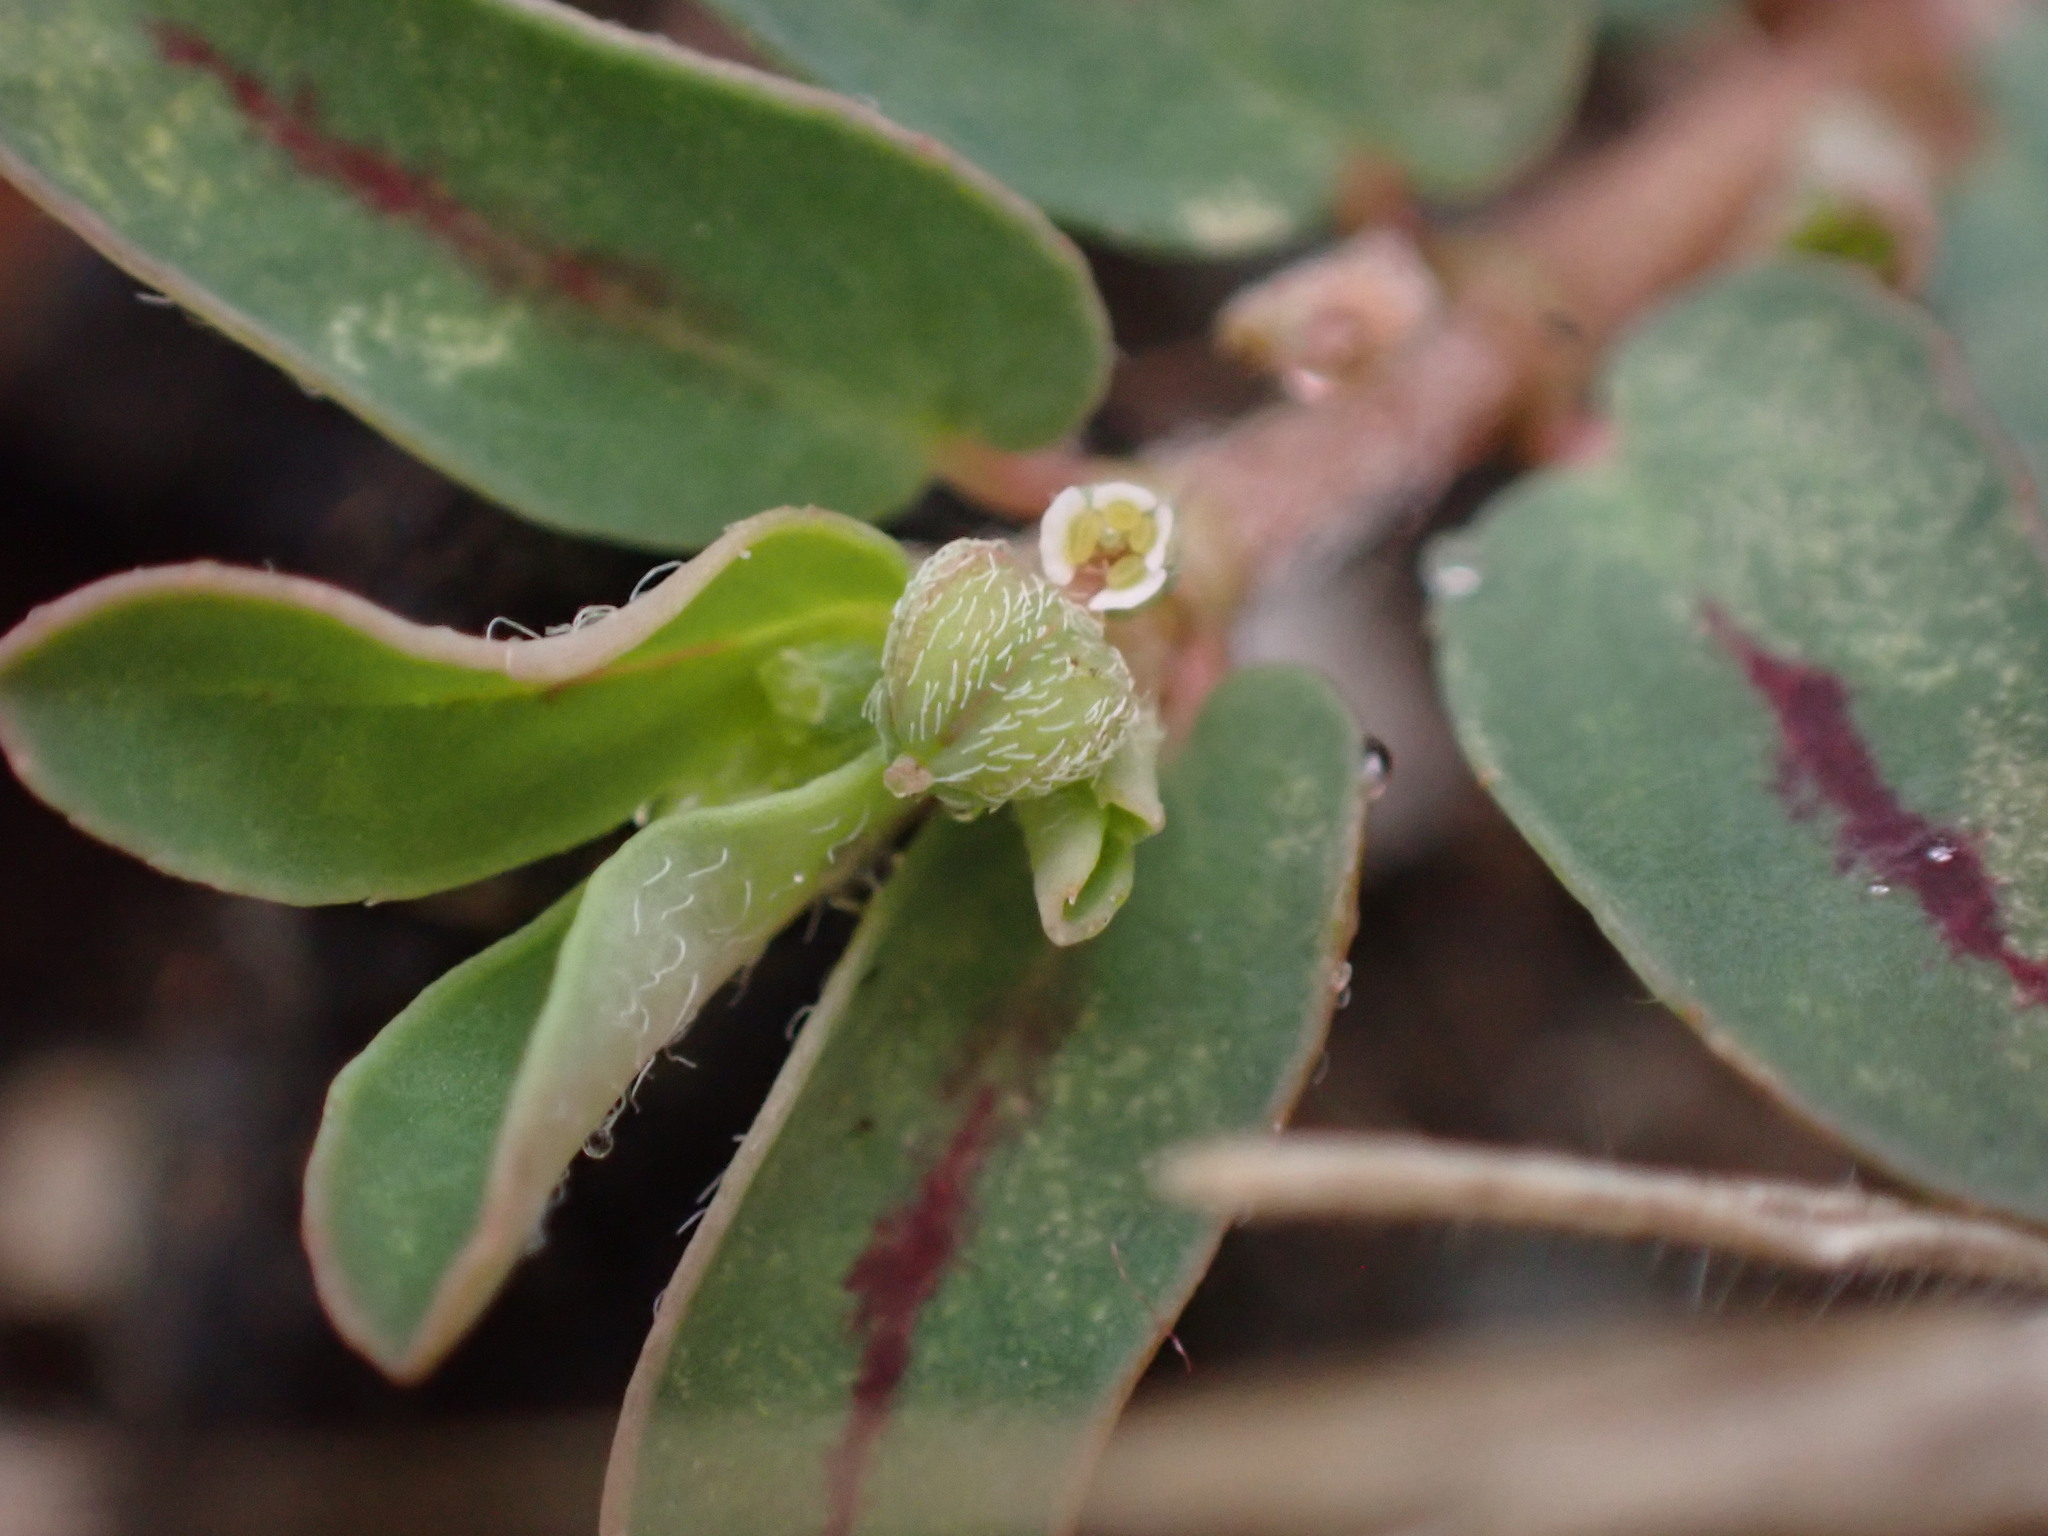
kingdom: Plantae
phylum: Tracheophyta
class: Magnoliopsida
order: Malpighiales
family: Euphorbiaceae
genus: Euphorbia
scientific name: Euphorbia maculata
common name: Spotted spurge
